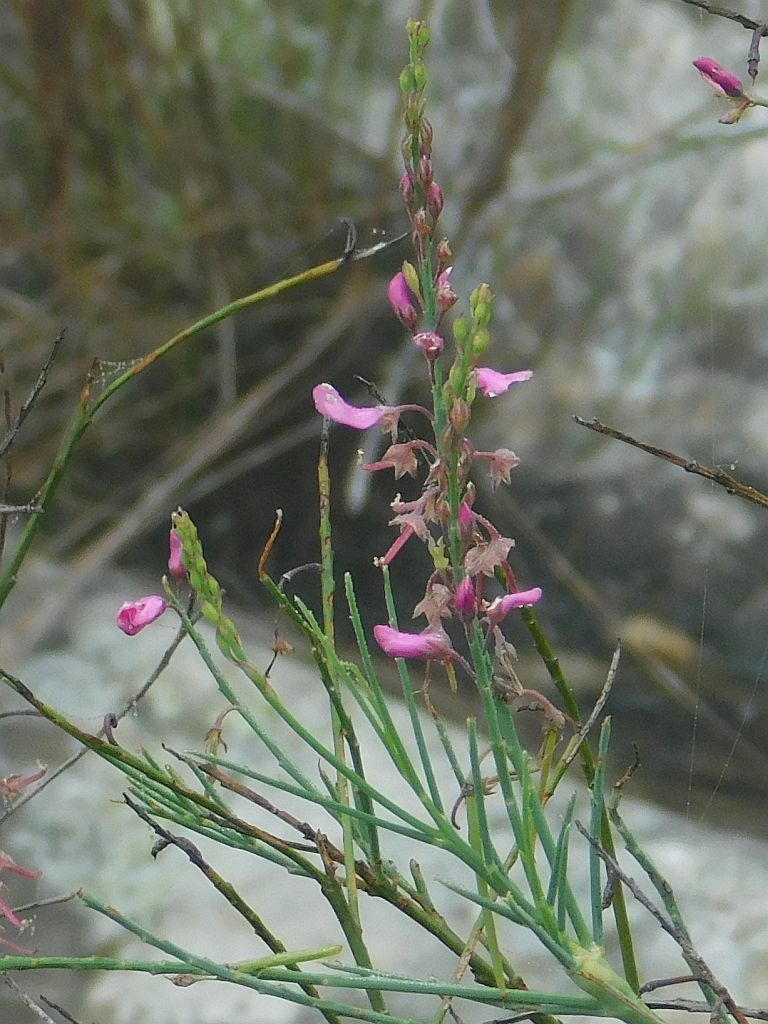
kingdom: Plantae
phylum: Tracheophyta
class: Magnoliopsida
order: Fabales
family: Fabaceae
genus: Indigofera
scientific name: Indigofera filifolia
